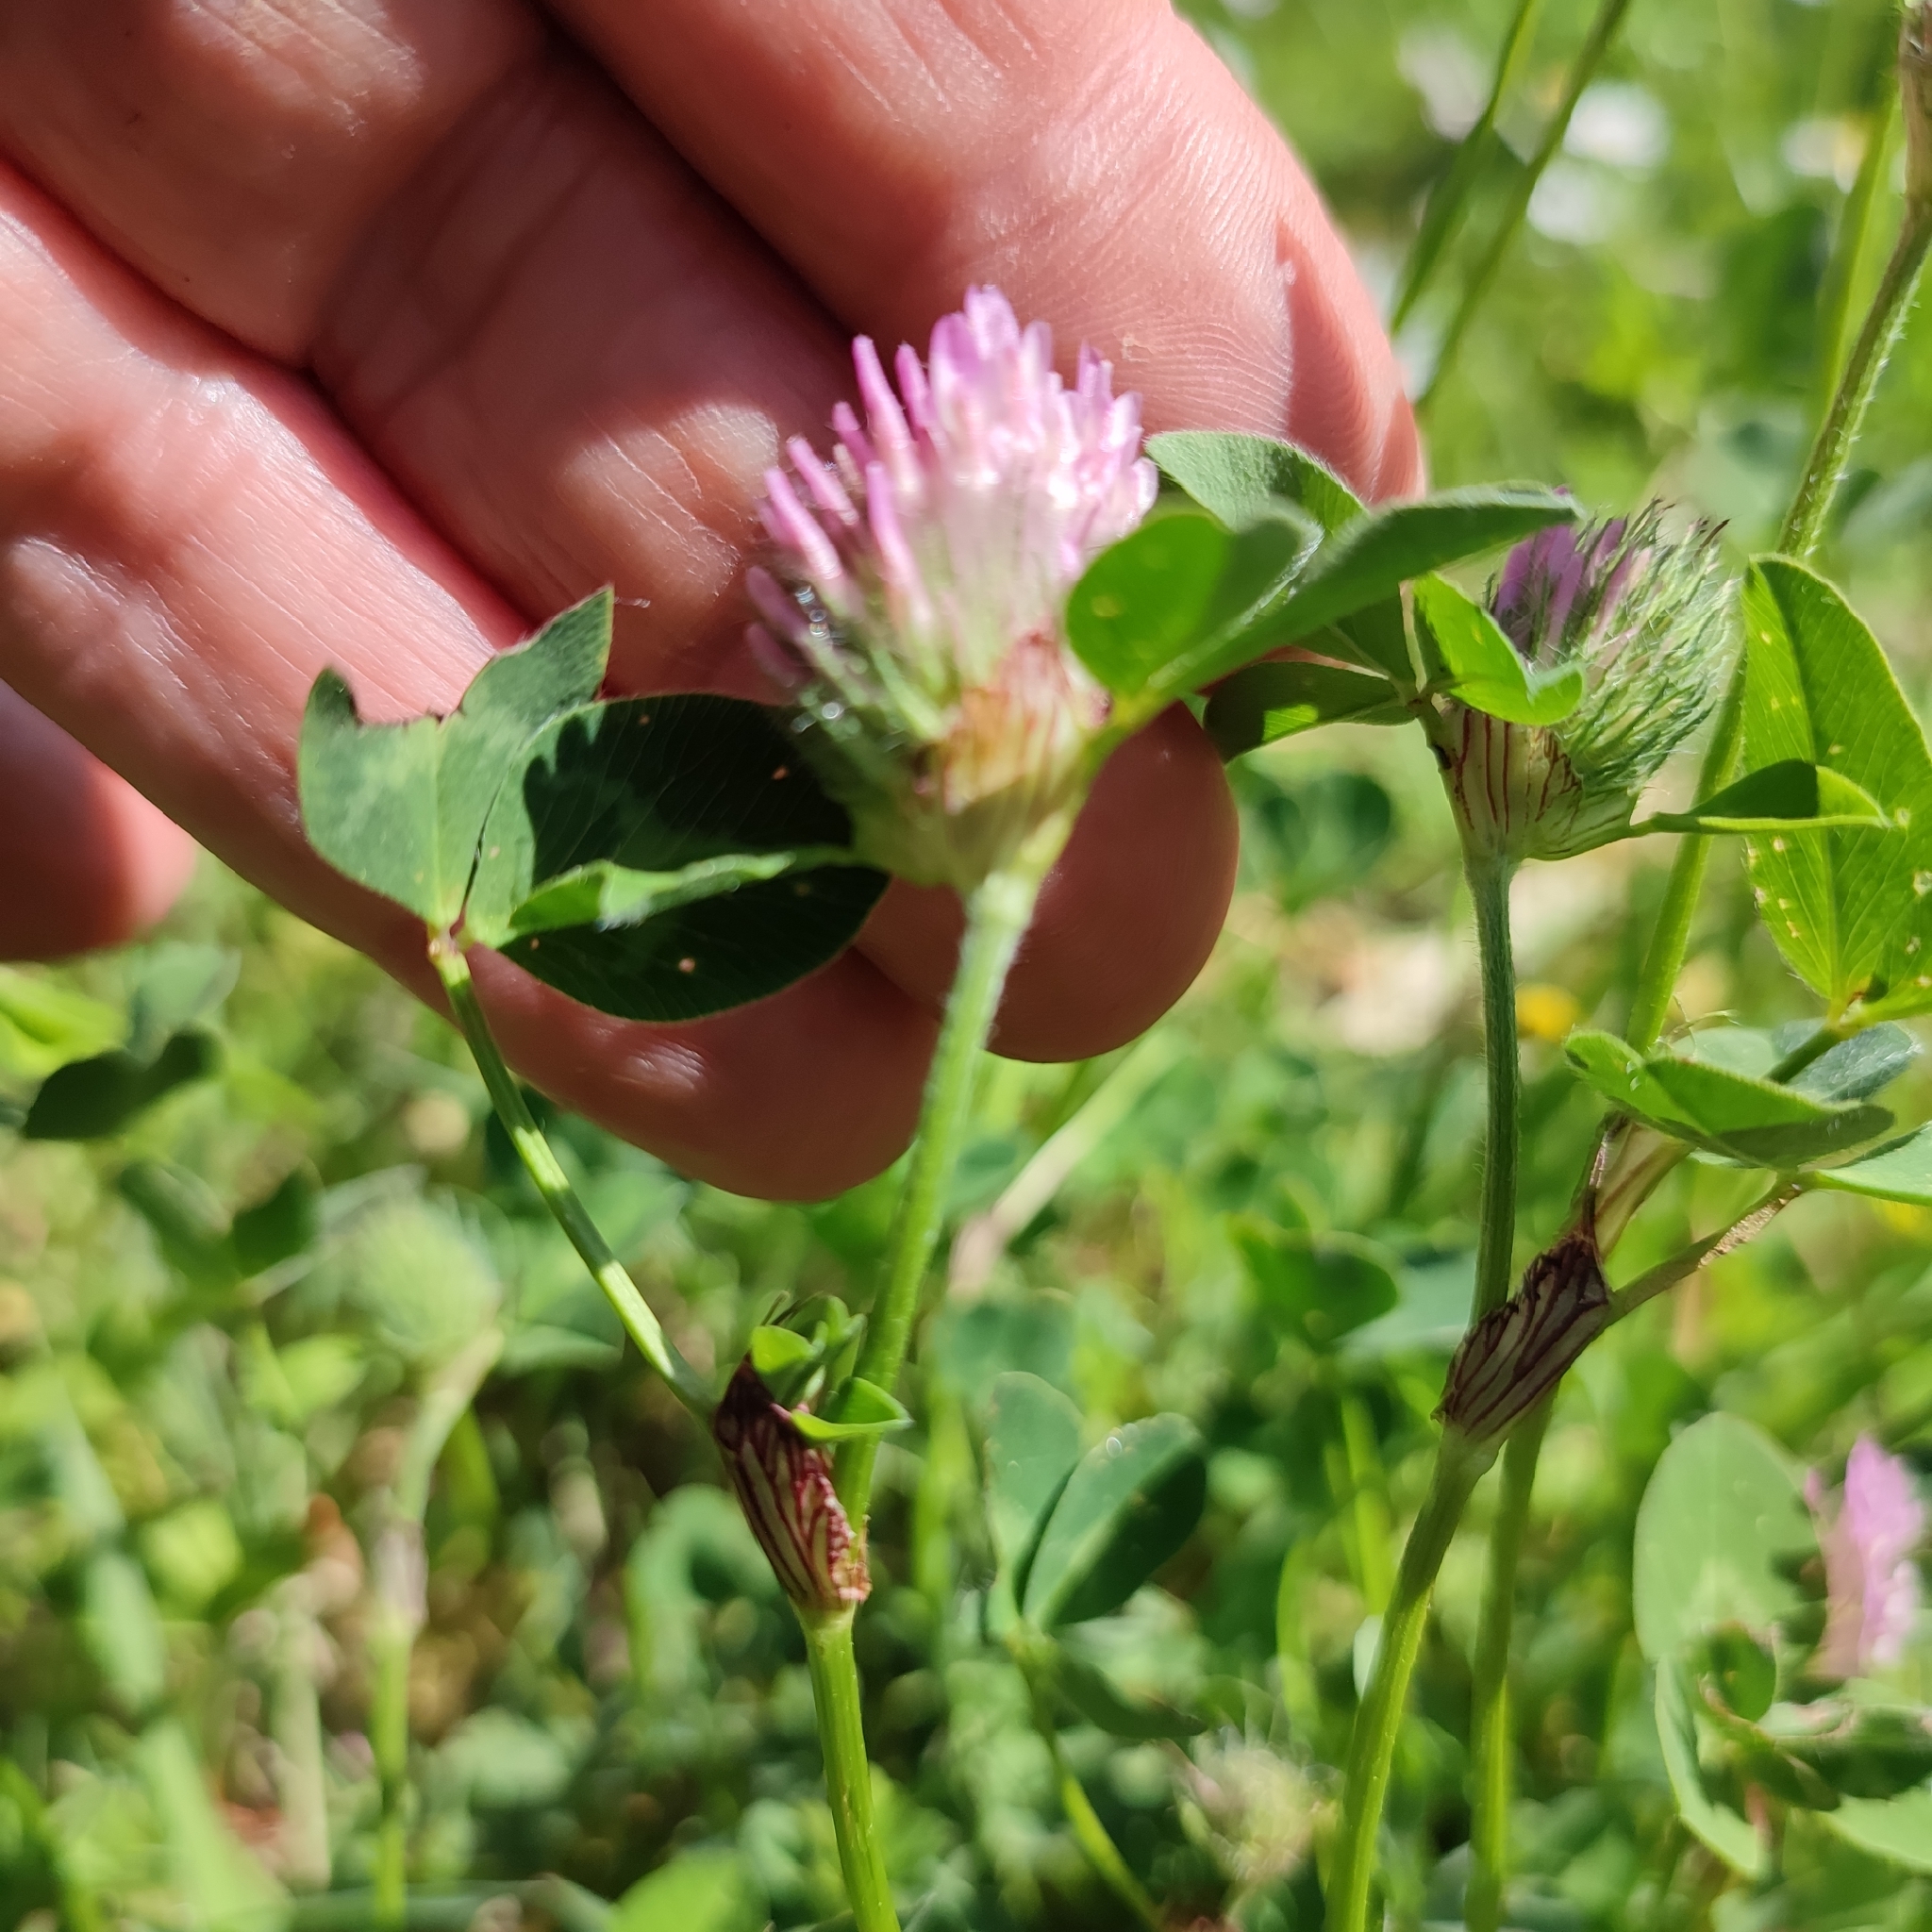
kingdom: Plantae
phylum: Tracheophyta
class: Magnoliopsida
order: Fabales
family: Fabaceae
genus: Trifolium
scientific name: Trifolium pratense
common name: Red clover
